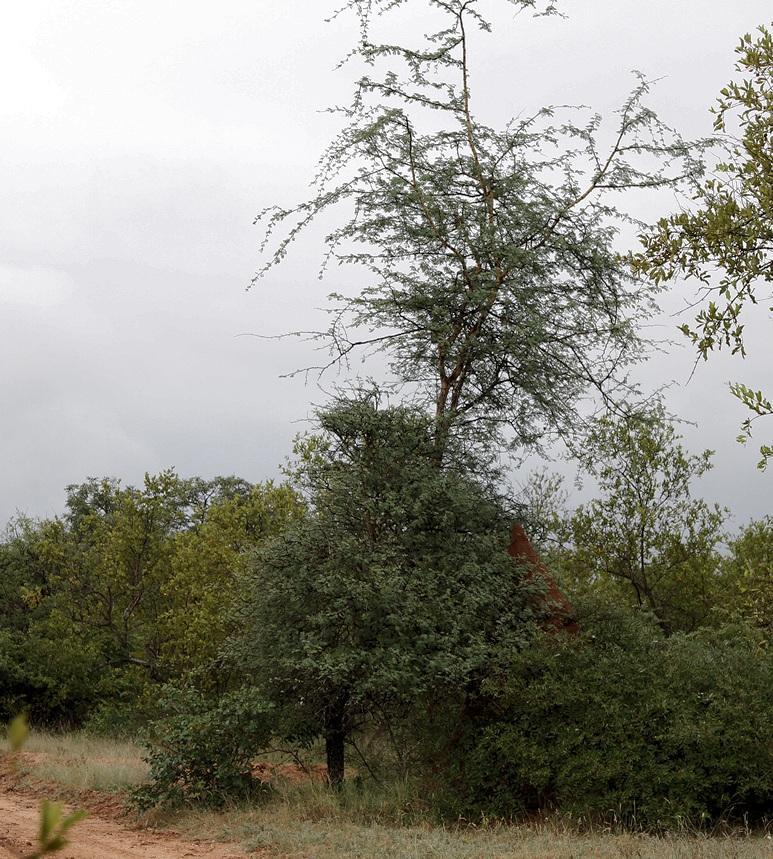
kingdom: Plantae
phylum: Tracheophyta
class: Magnoliopsida
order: Fabales
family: Fabaceae
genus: Senegalia
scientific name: Senegalia senegal
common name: Senegal-gum
